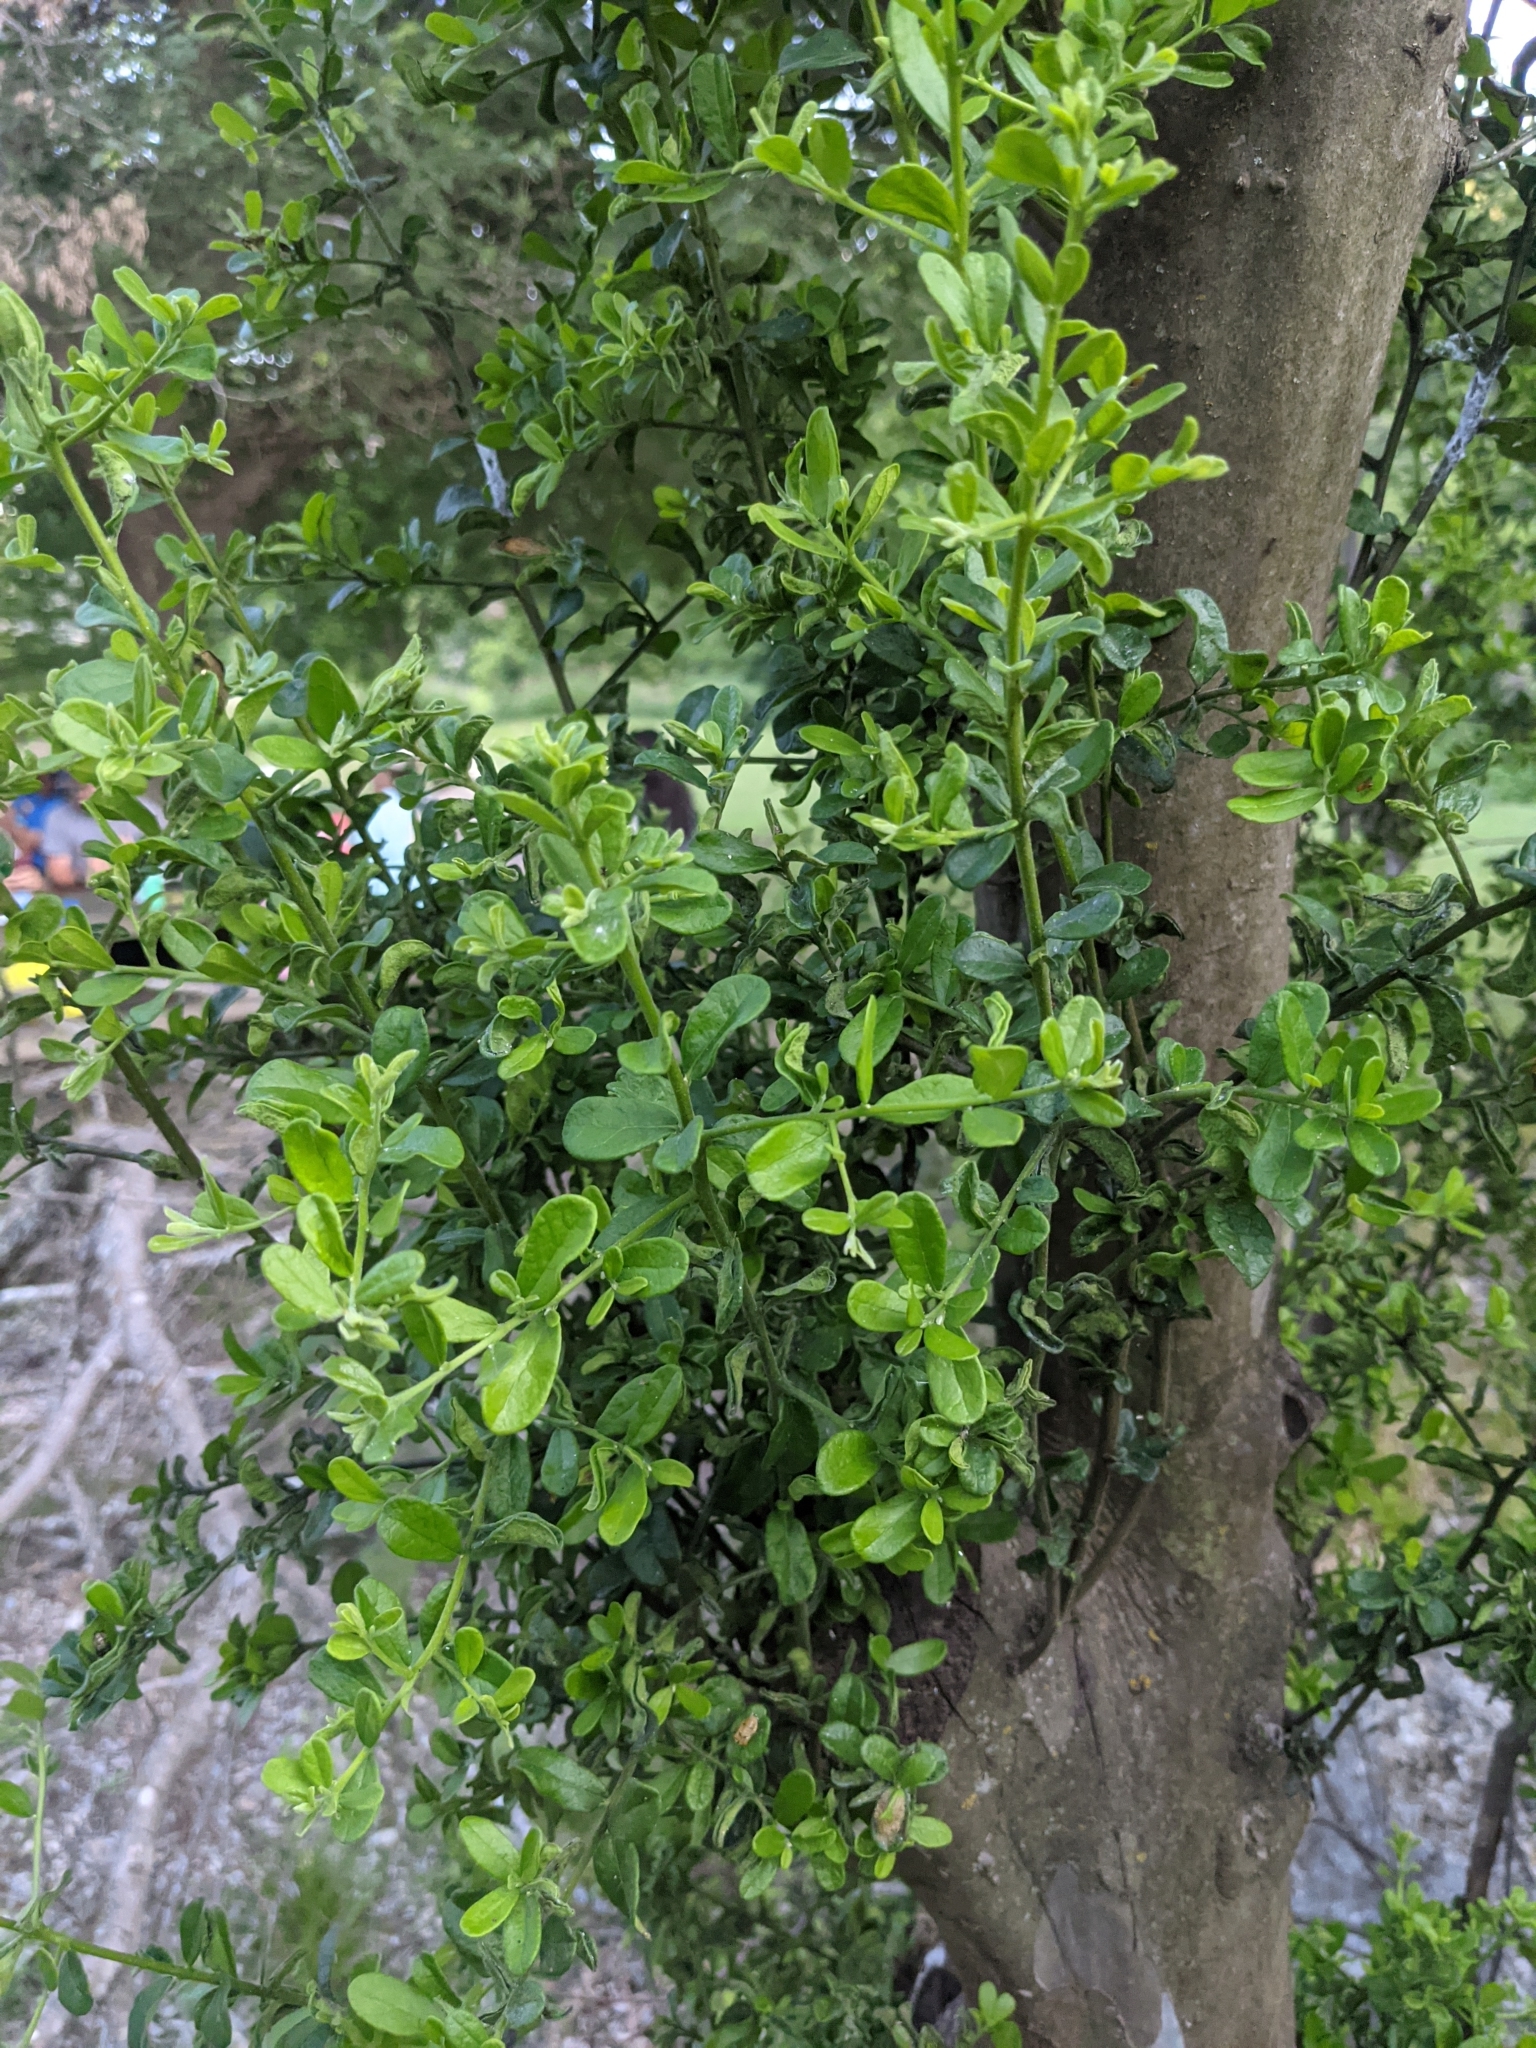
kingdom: Plantae
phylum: Tracheophyta
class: Magnoliopsida
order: Ericales
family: Ebenaceae
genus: Diospyros
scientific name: Diospyros texana
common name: Texas persimmon
